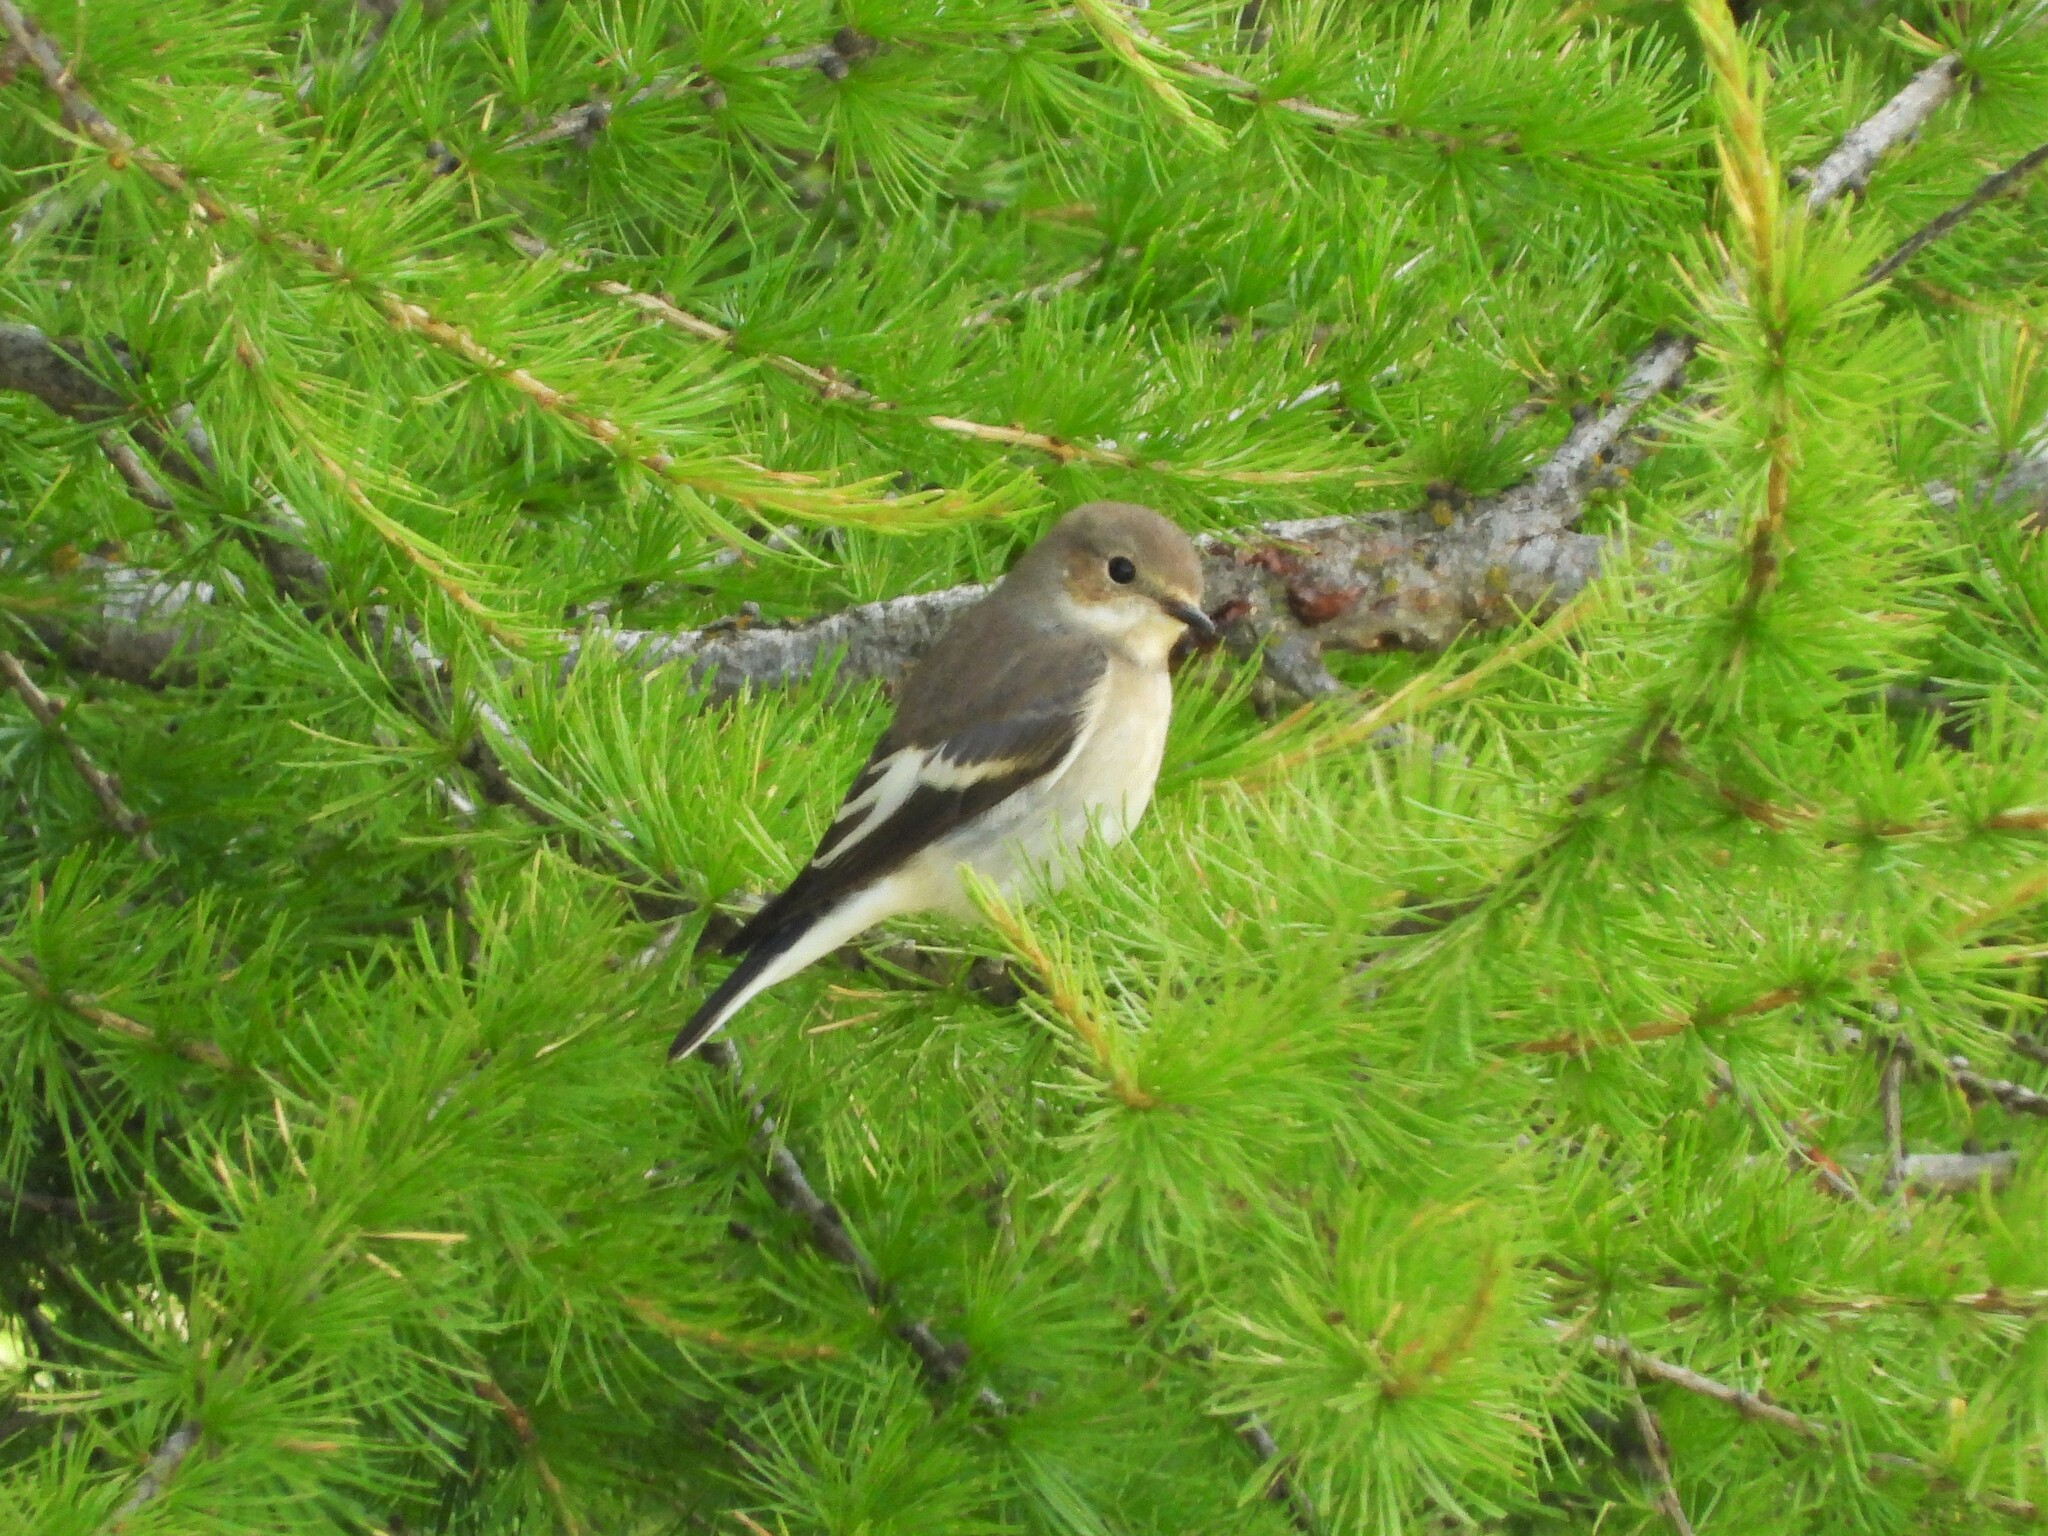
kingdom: Animalia
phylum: Chordata
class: Aves
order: Passeriformes
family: Muscicapidae
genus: Ficedula
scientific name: Ficedula hypoleuca
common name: European pied flycatcher
